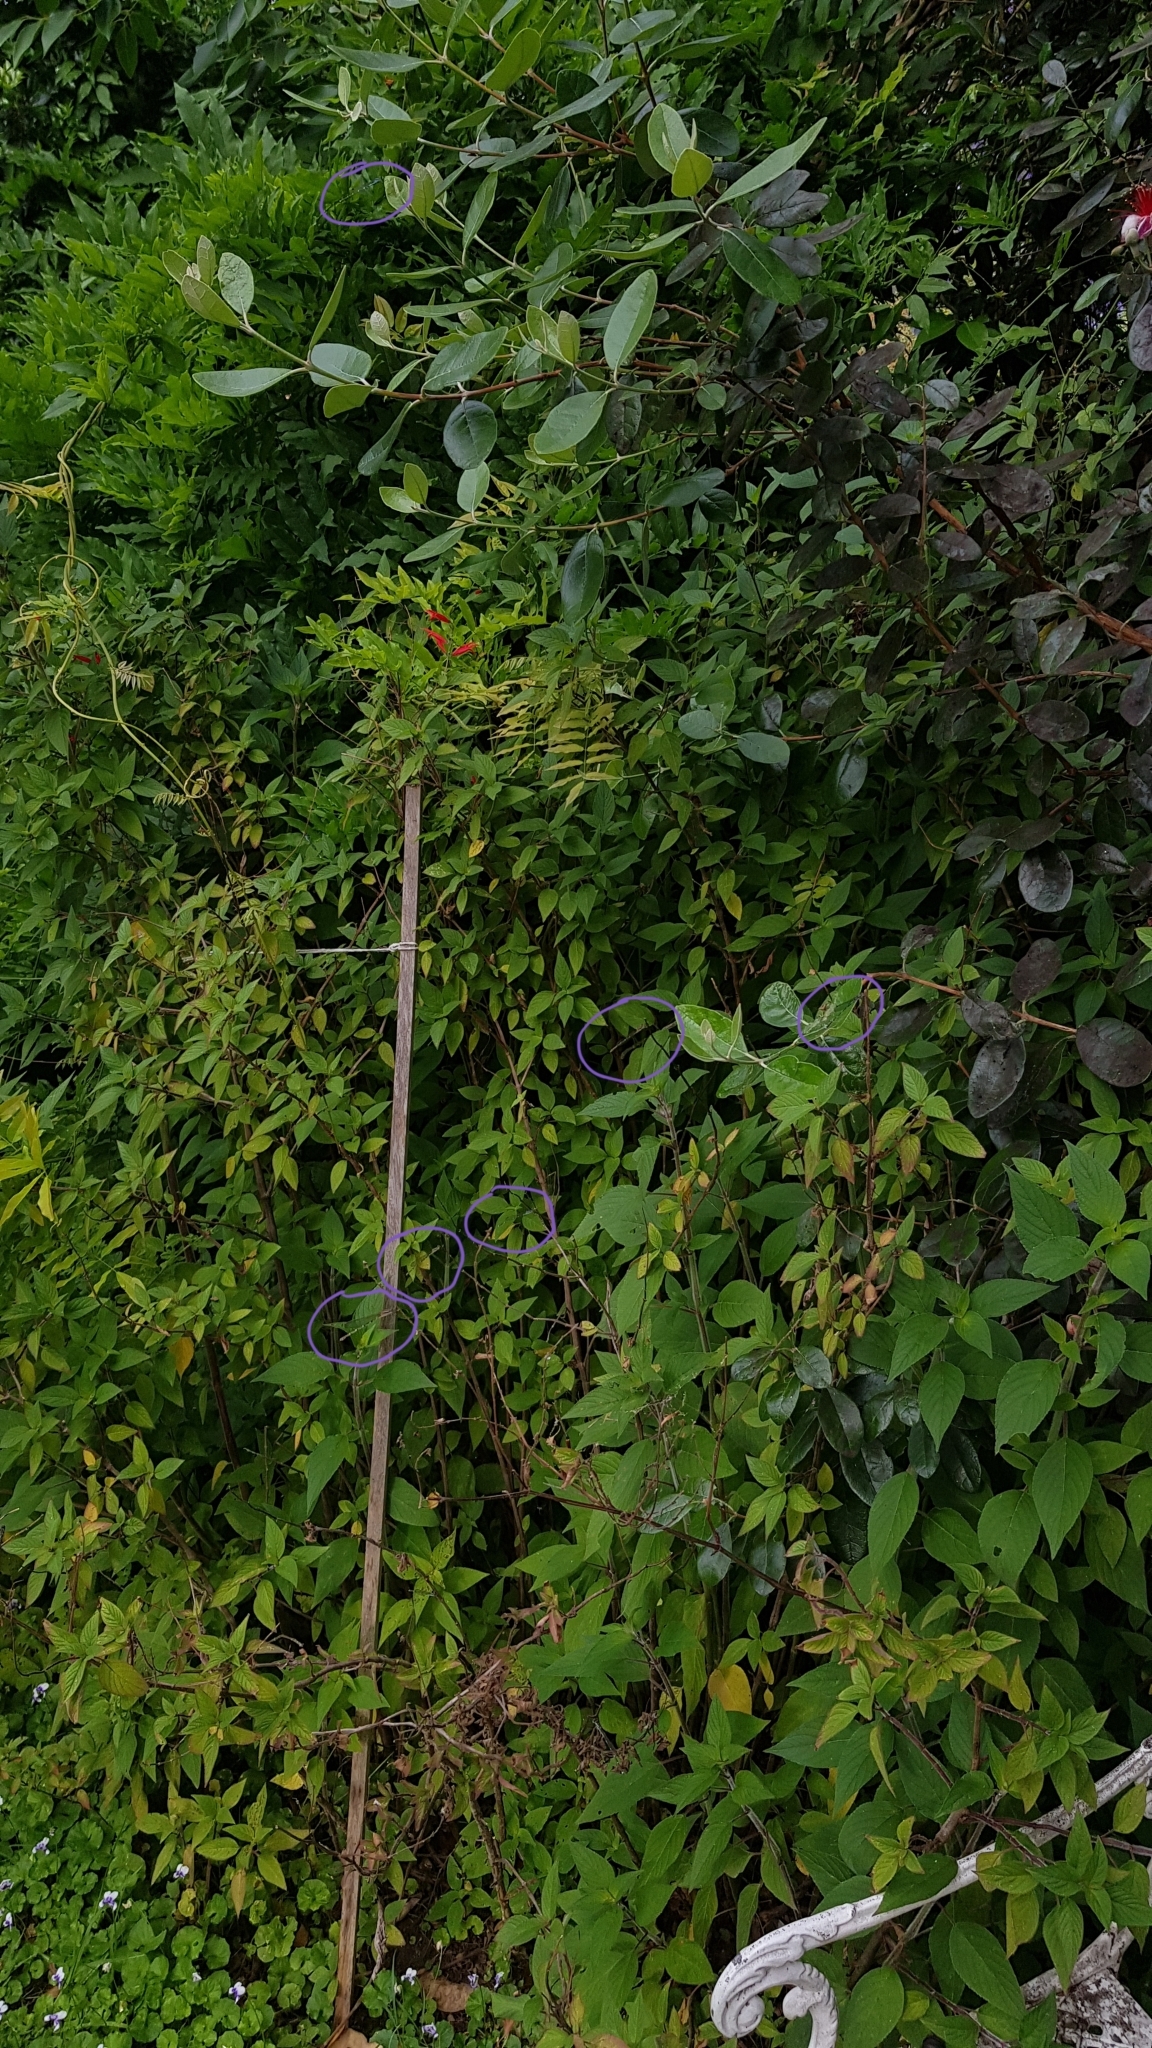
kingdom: Animalia
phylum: Arthropoda
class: Insecta
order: Odonata
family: Lestidae
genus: Austrolestes
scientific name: Austrolestes leda
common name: Wandering ringtail
